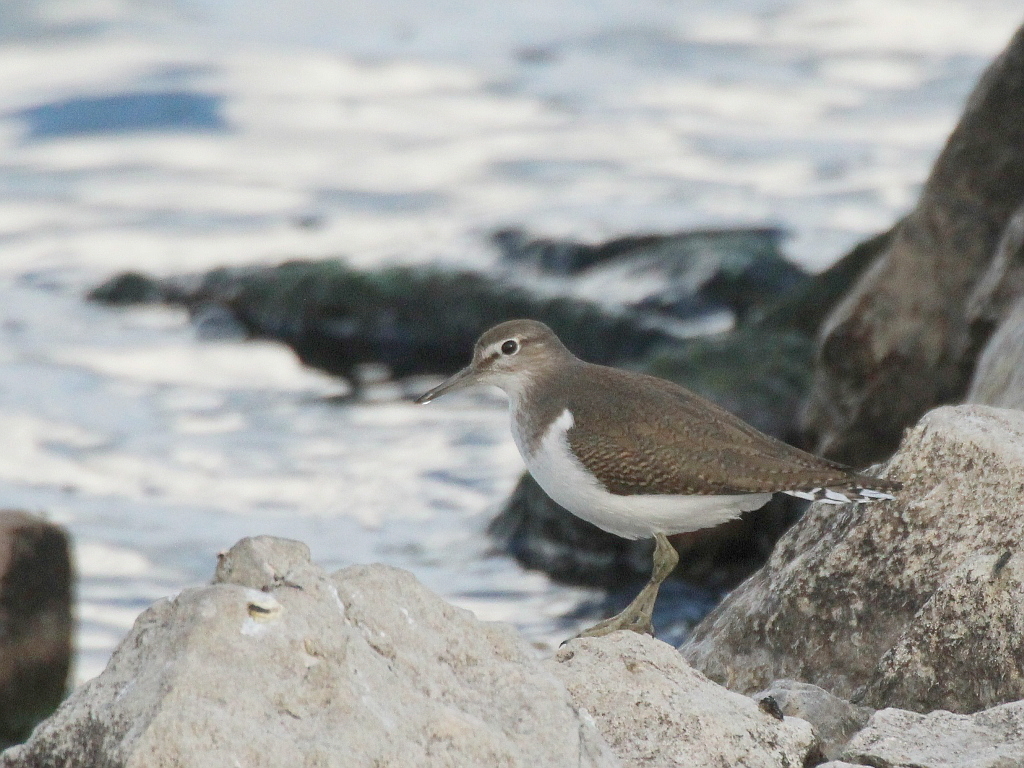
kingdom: Animalia
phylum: Chordata
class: Aves
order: Charadriiformes
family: Scolopacidae
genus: Actitis
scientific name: Actitis hypoleucos
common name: Common sandpiper
